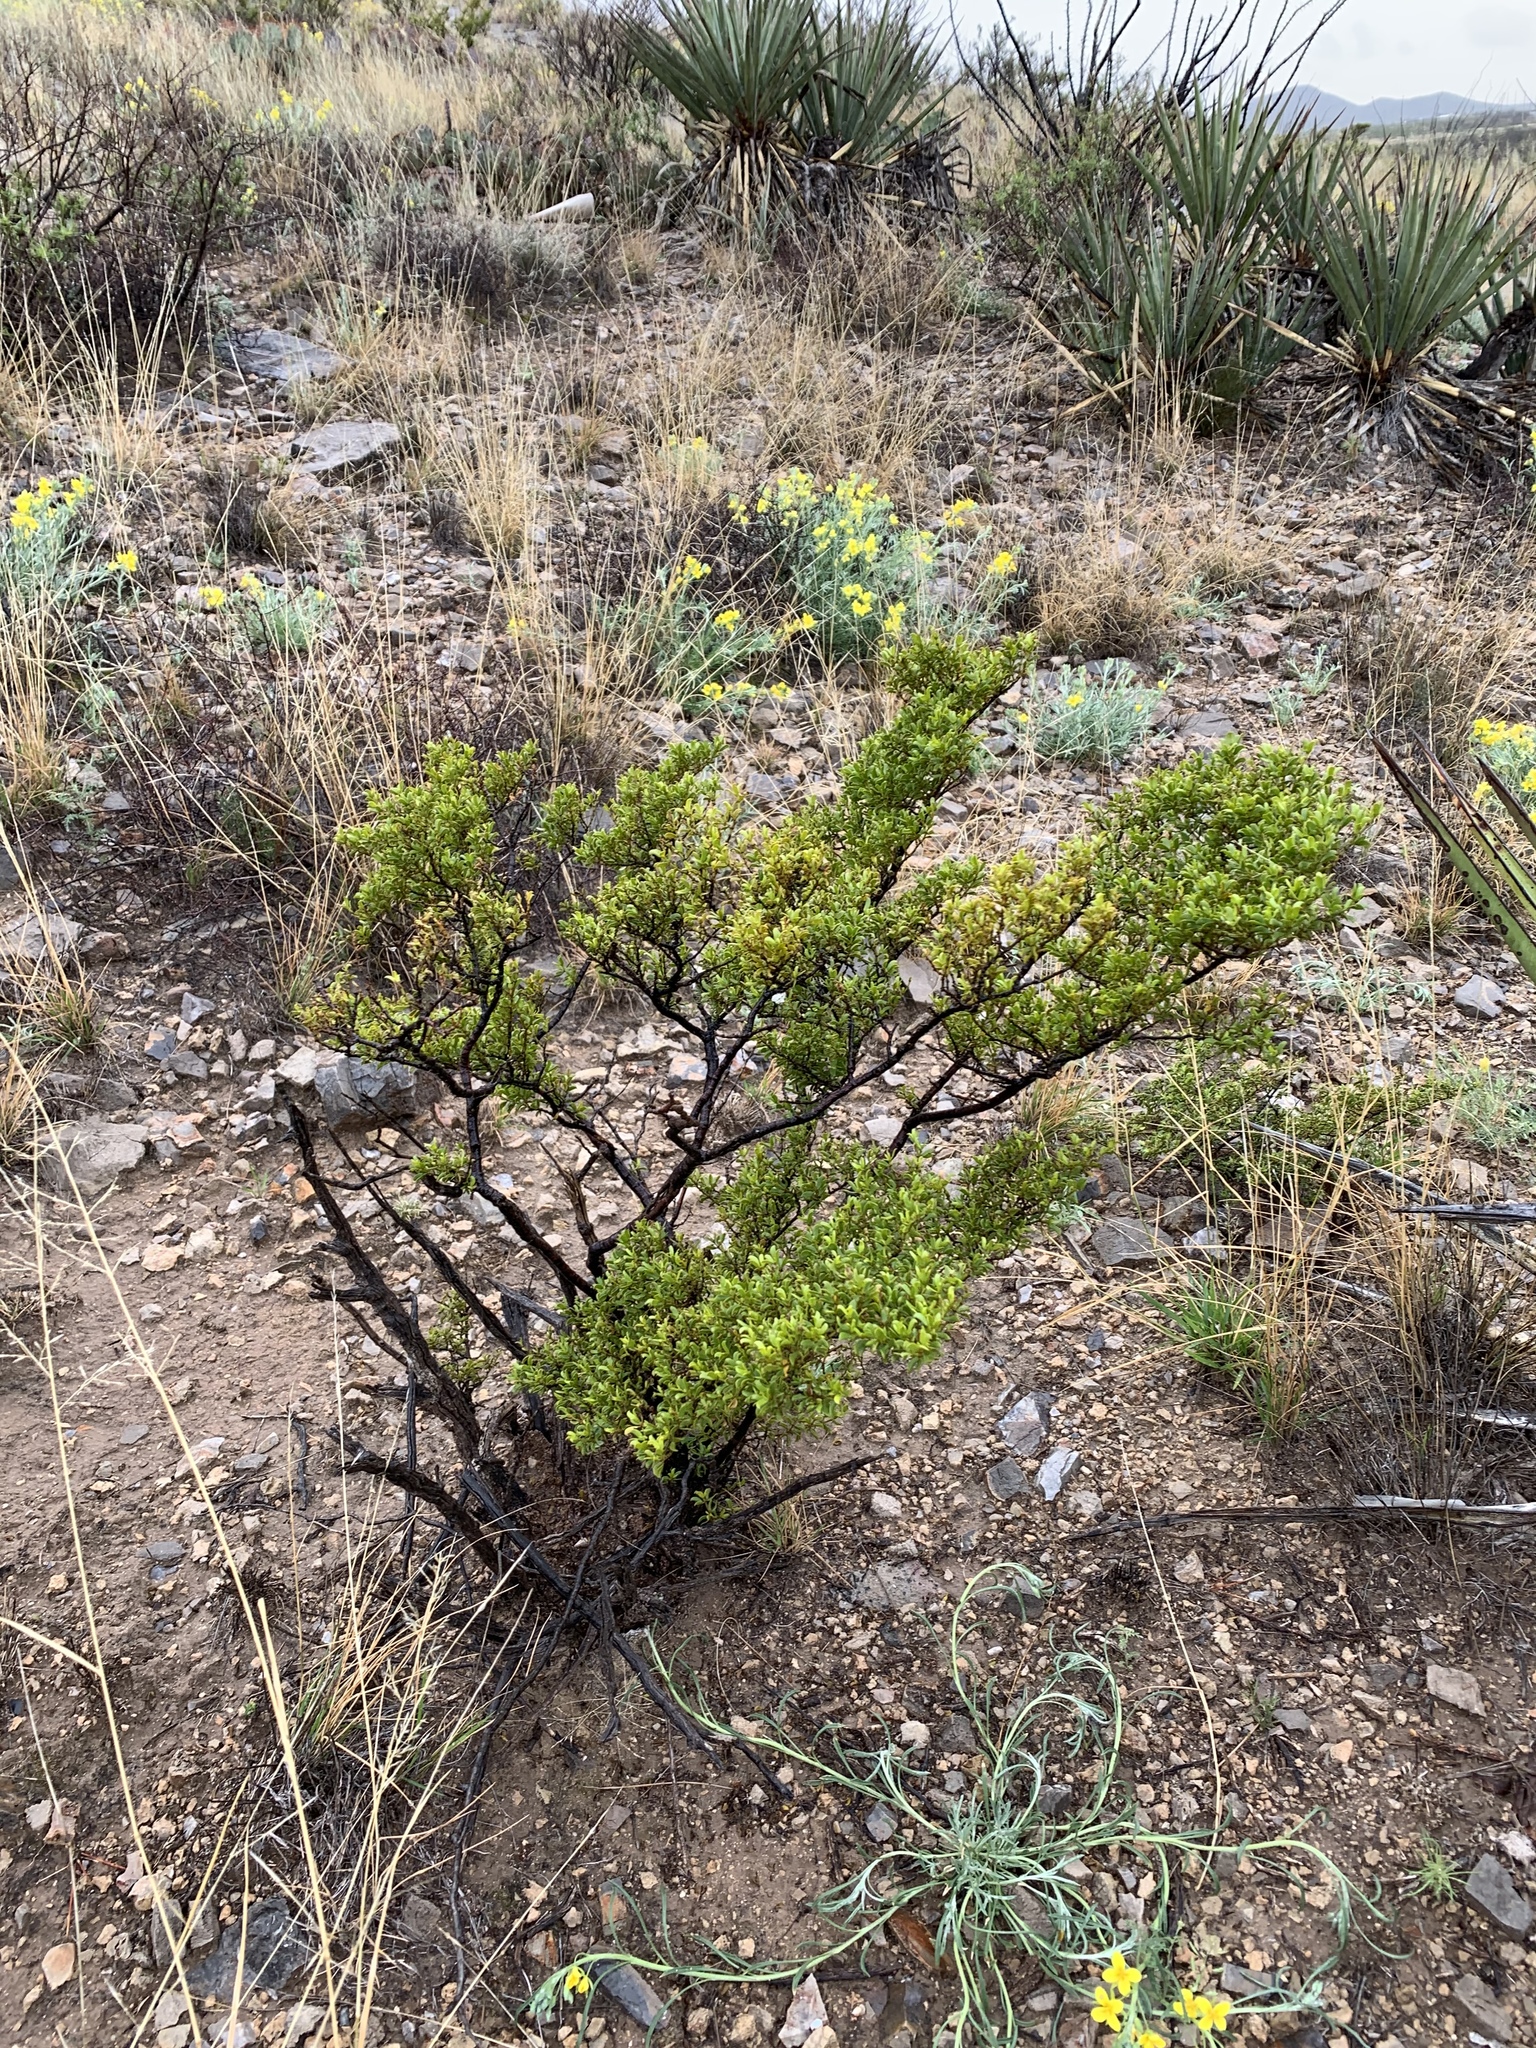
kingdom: Plantae
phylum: Tracheophyta
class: Magnoliopsida
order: Zygophyllales
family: Zygophyllaceae
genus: Larrea
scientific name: Larrea tridentata
